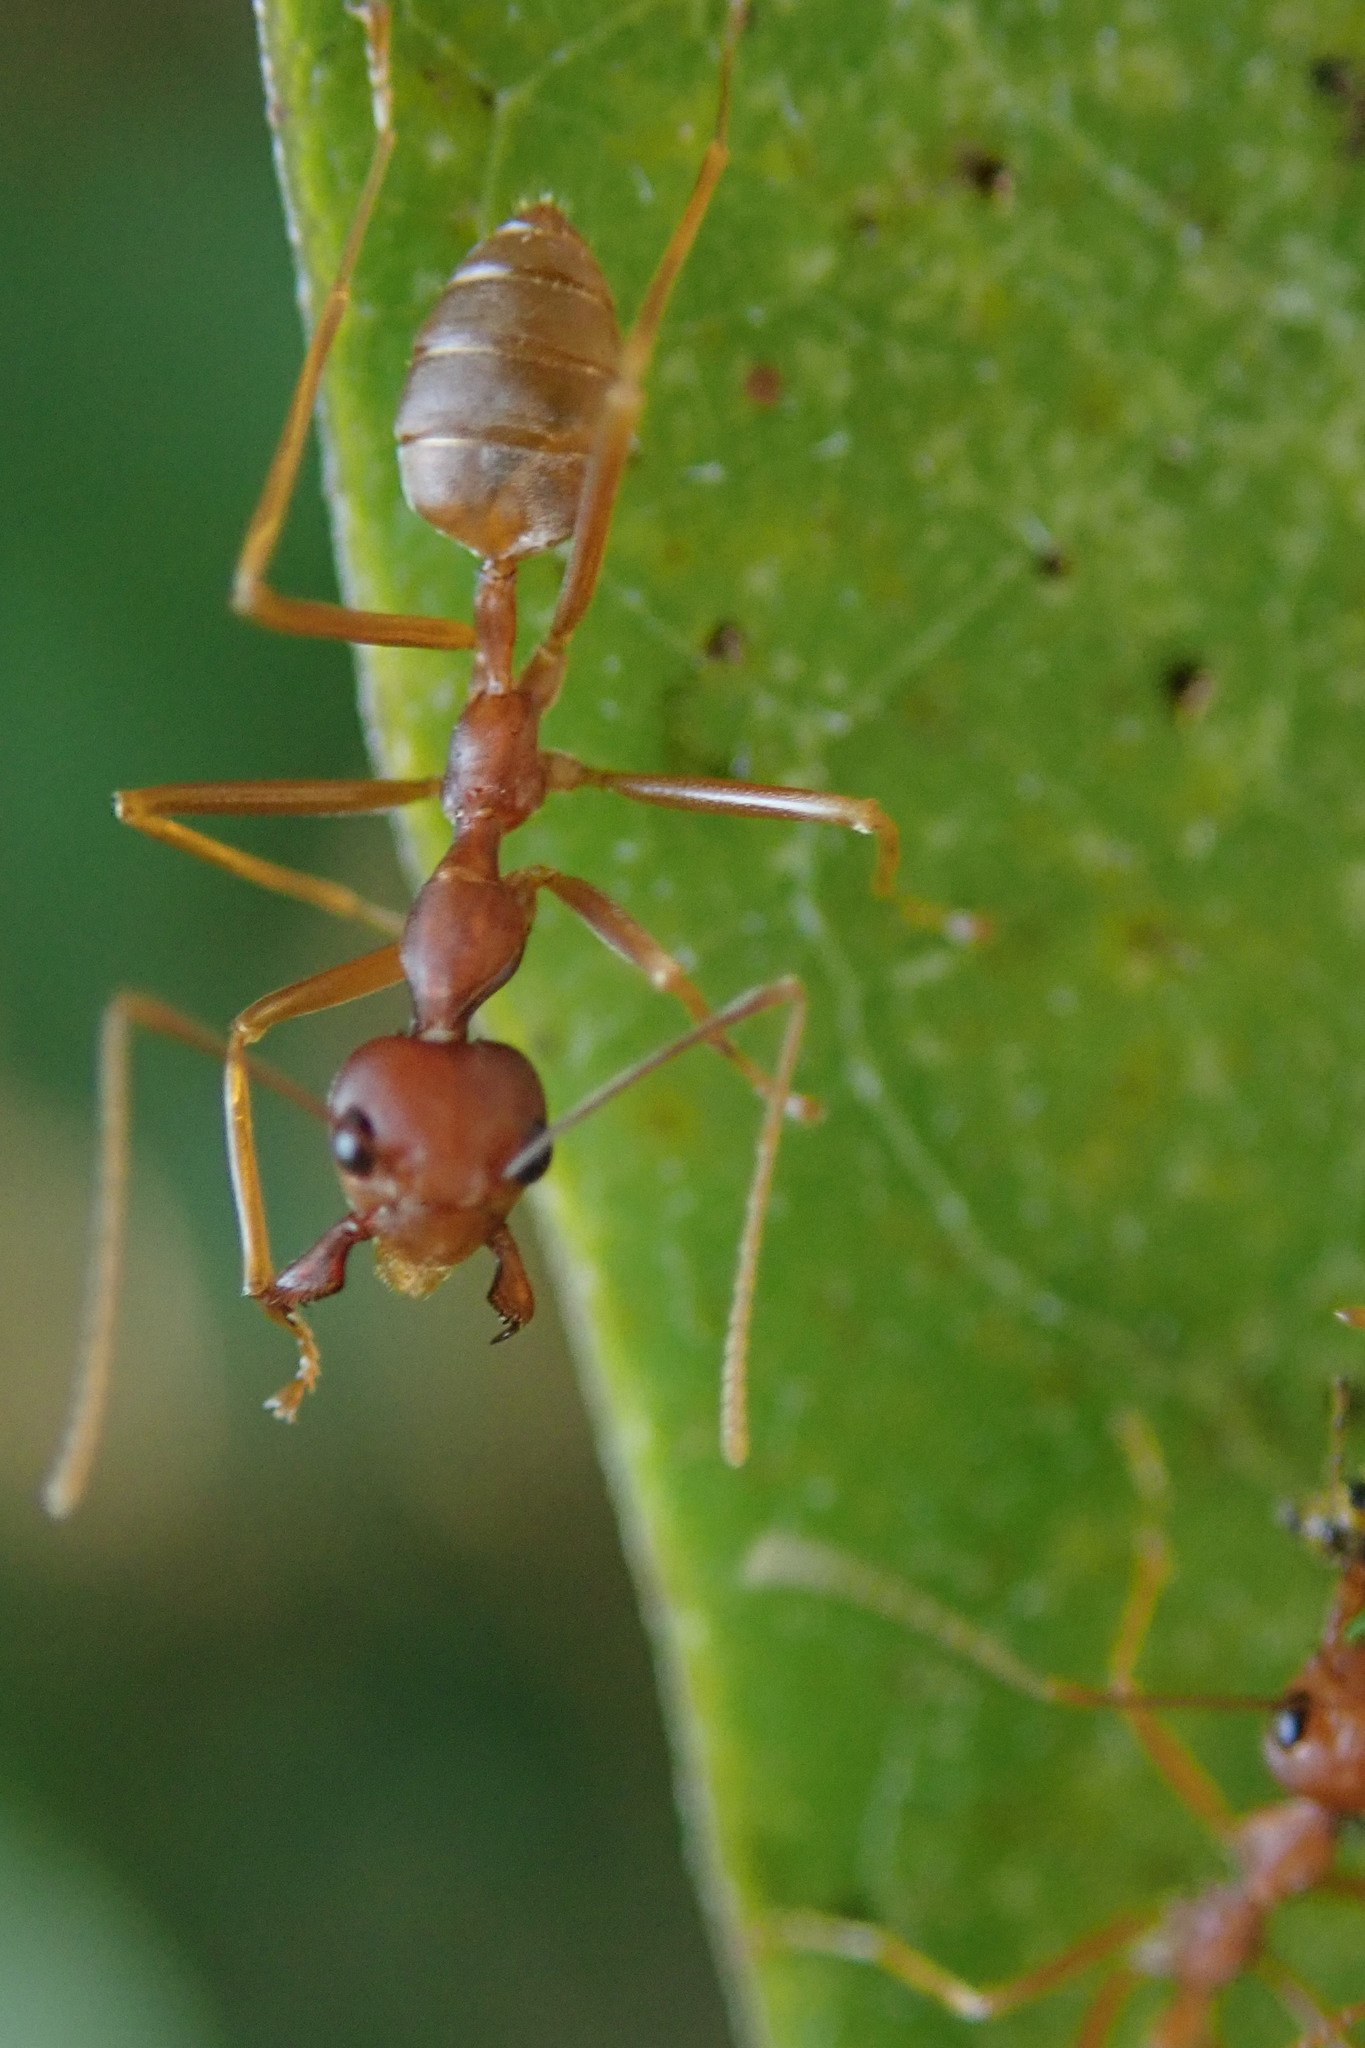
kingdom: Animalia
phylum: Arthropoda
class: Insecta
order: Hymenoptera
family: Formicidae
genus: Oecophylla
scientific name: Oecophylla longinoda
